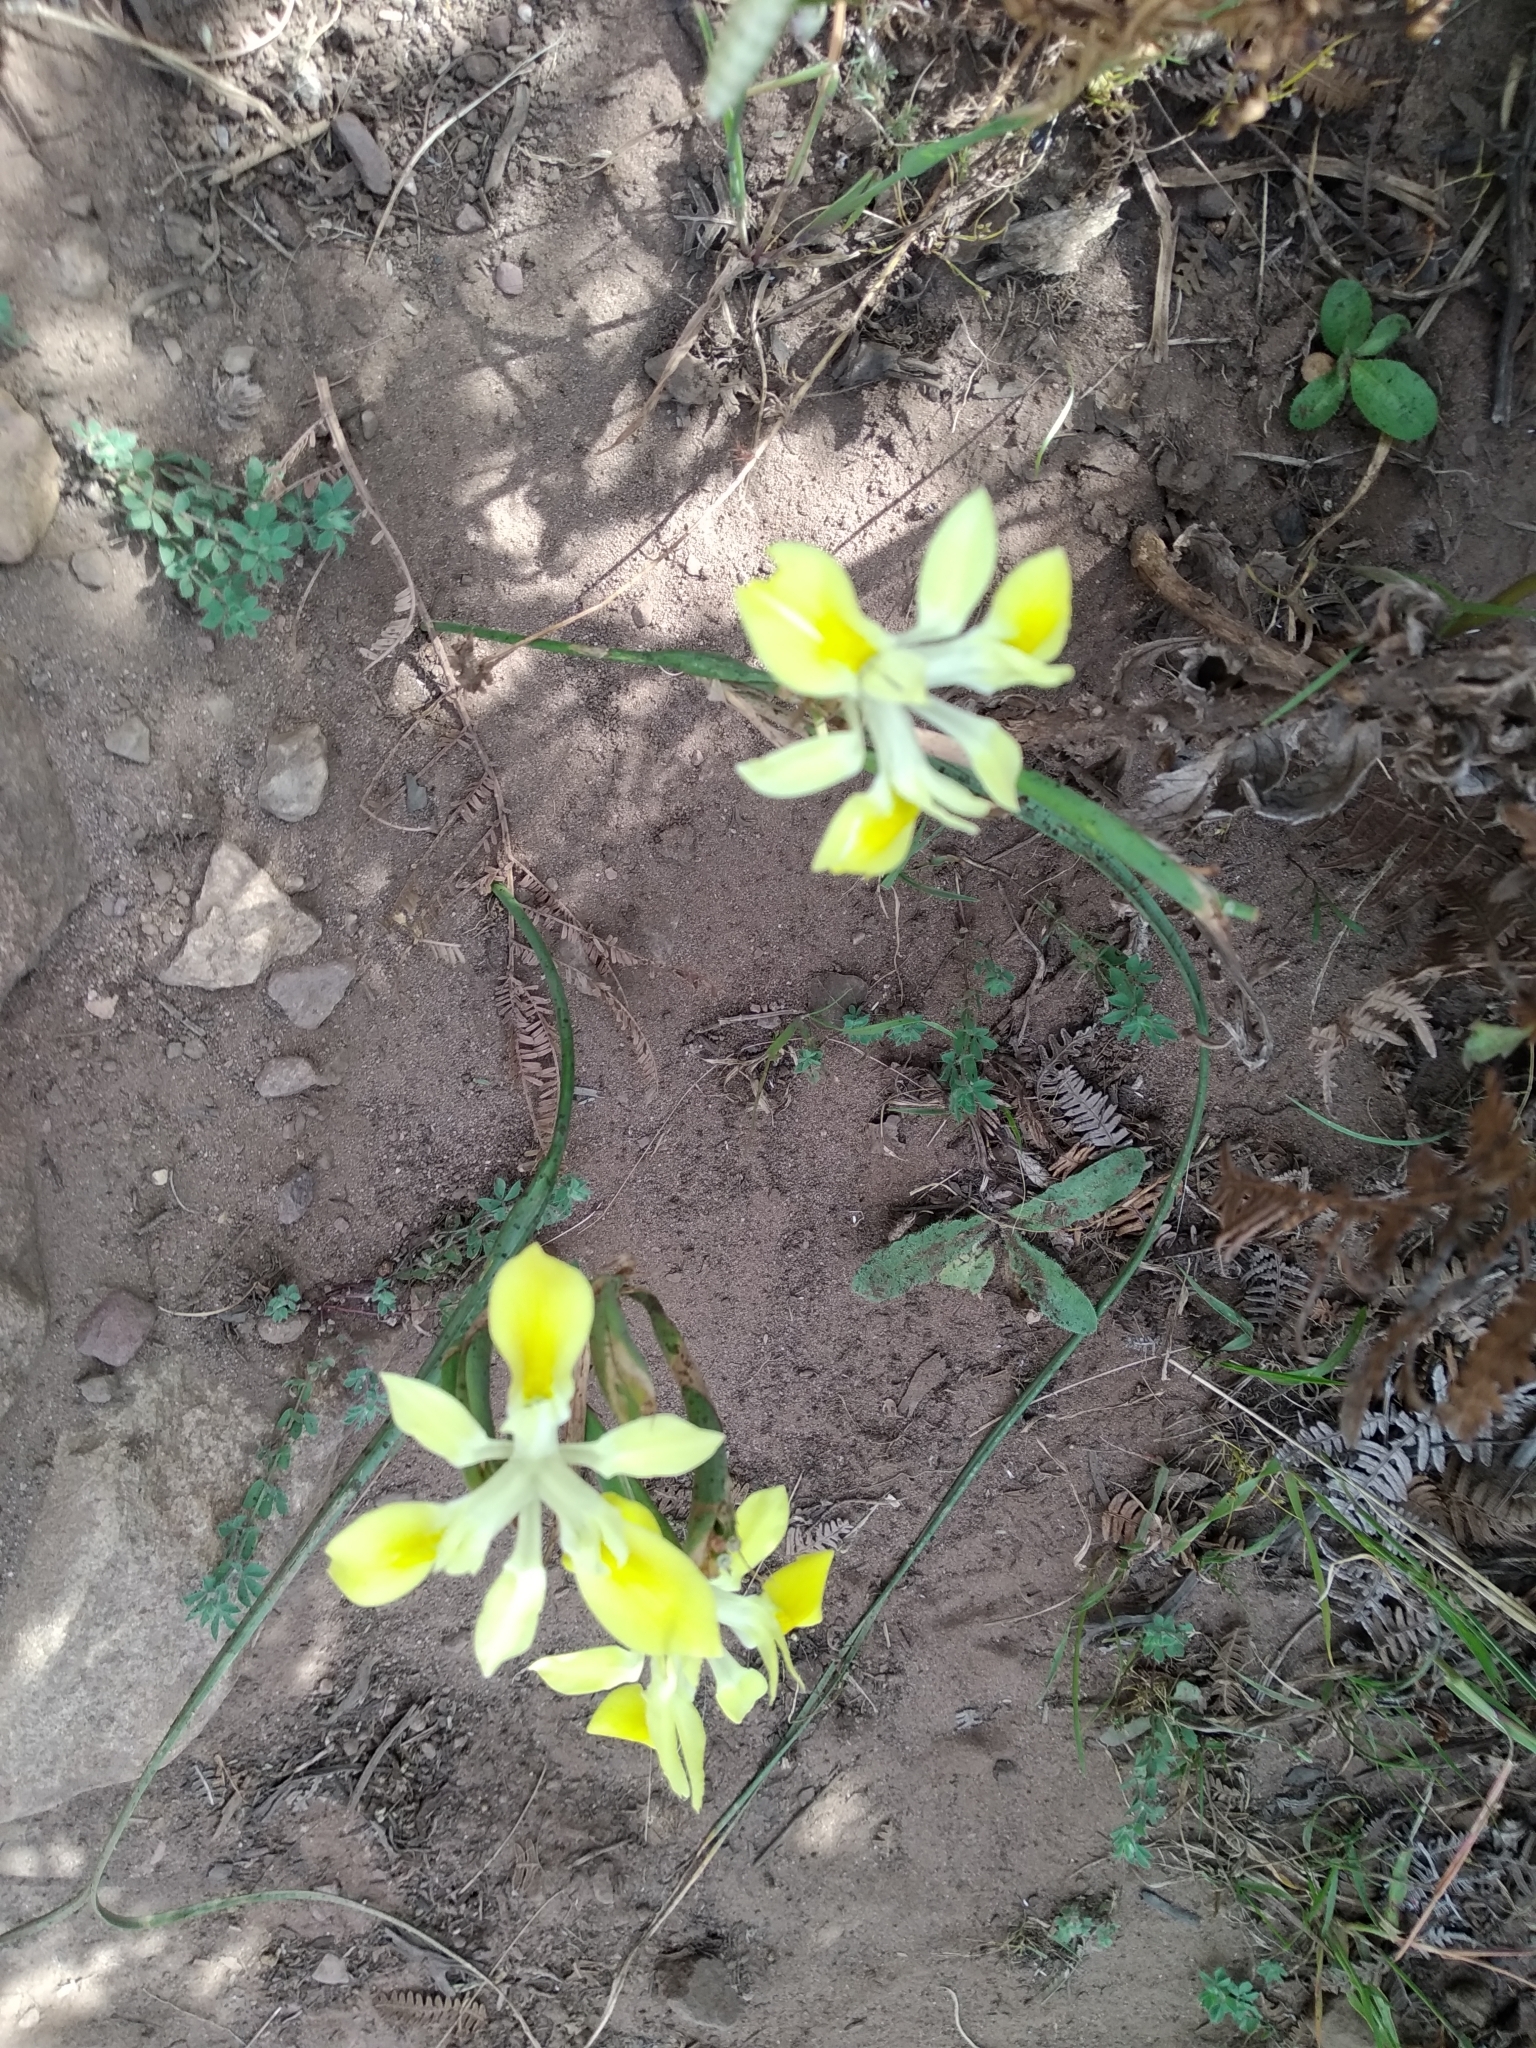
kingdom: Plantae
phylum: Tracheophyta
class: Liliopsida
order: Asparagales
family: Iridaceae
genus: Moraea
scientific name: Moraea fugax
